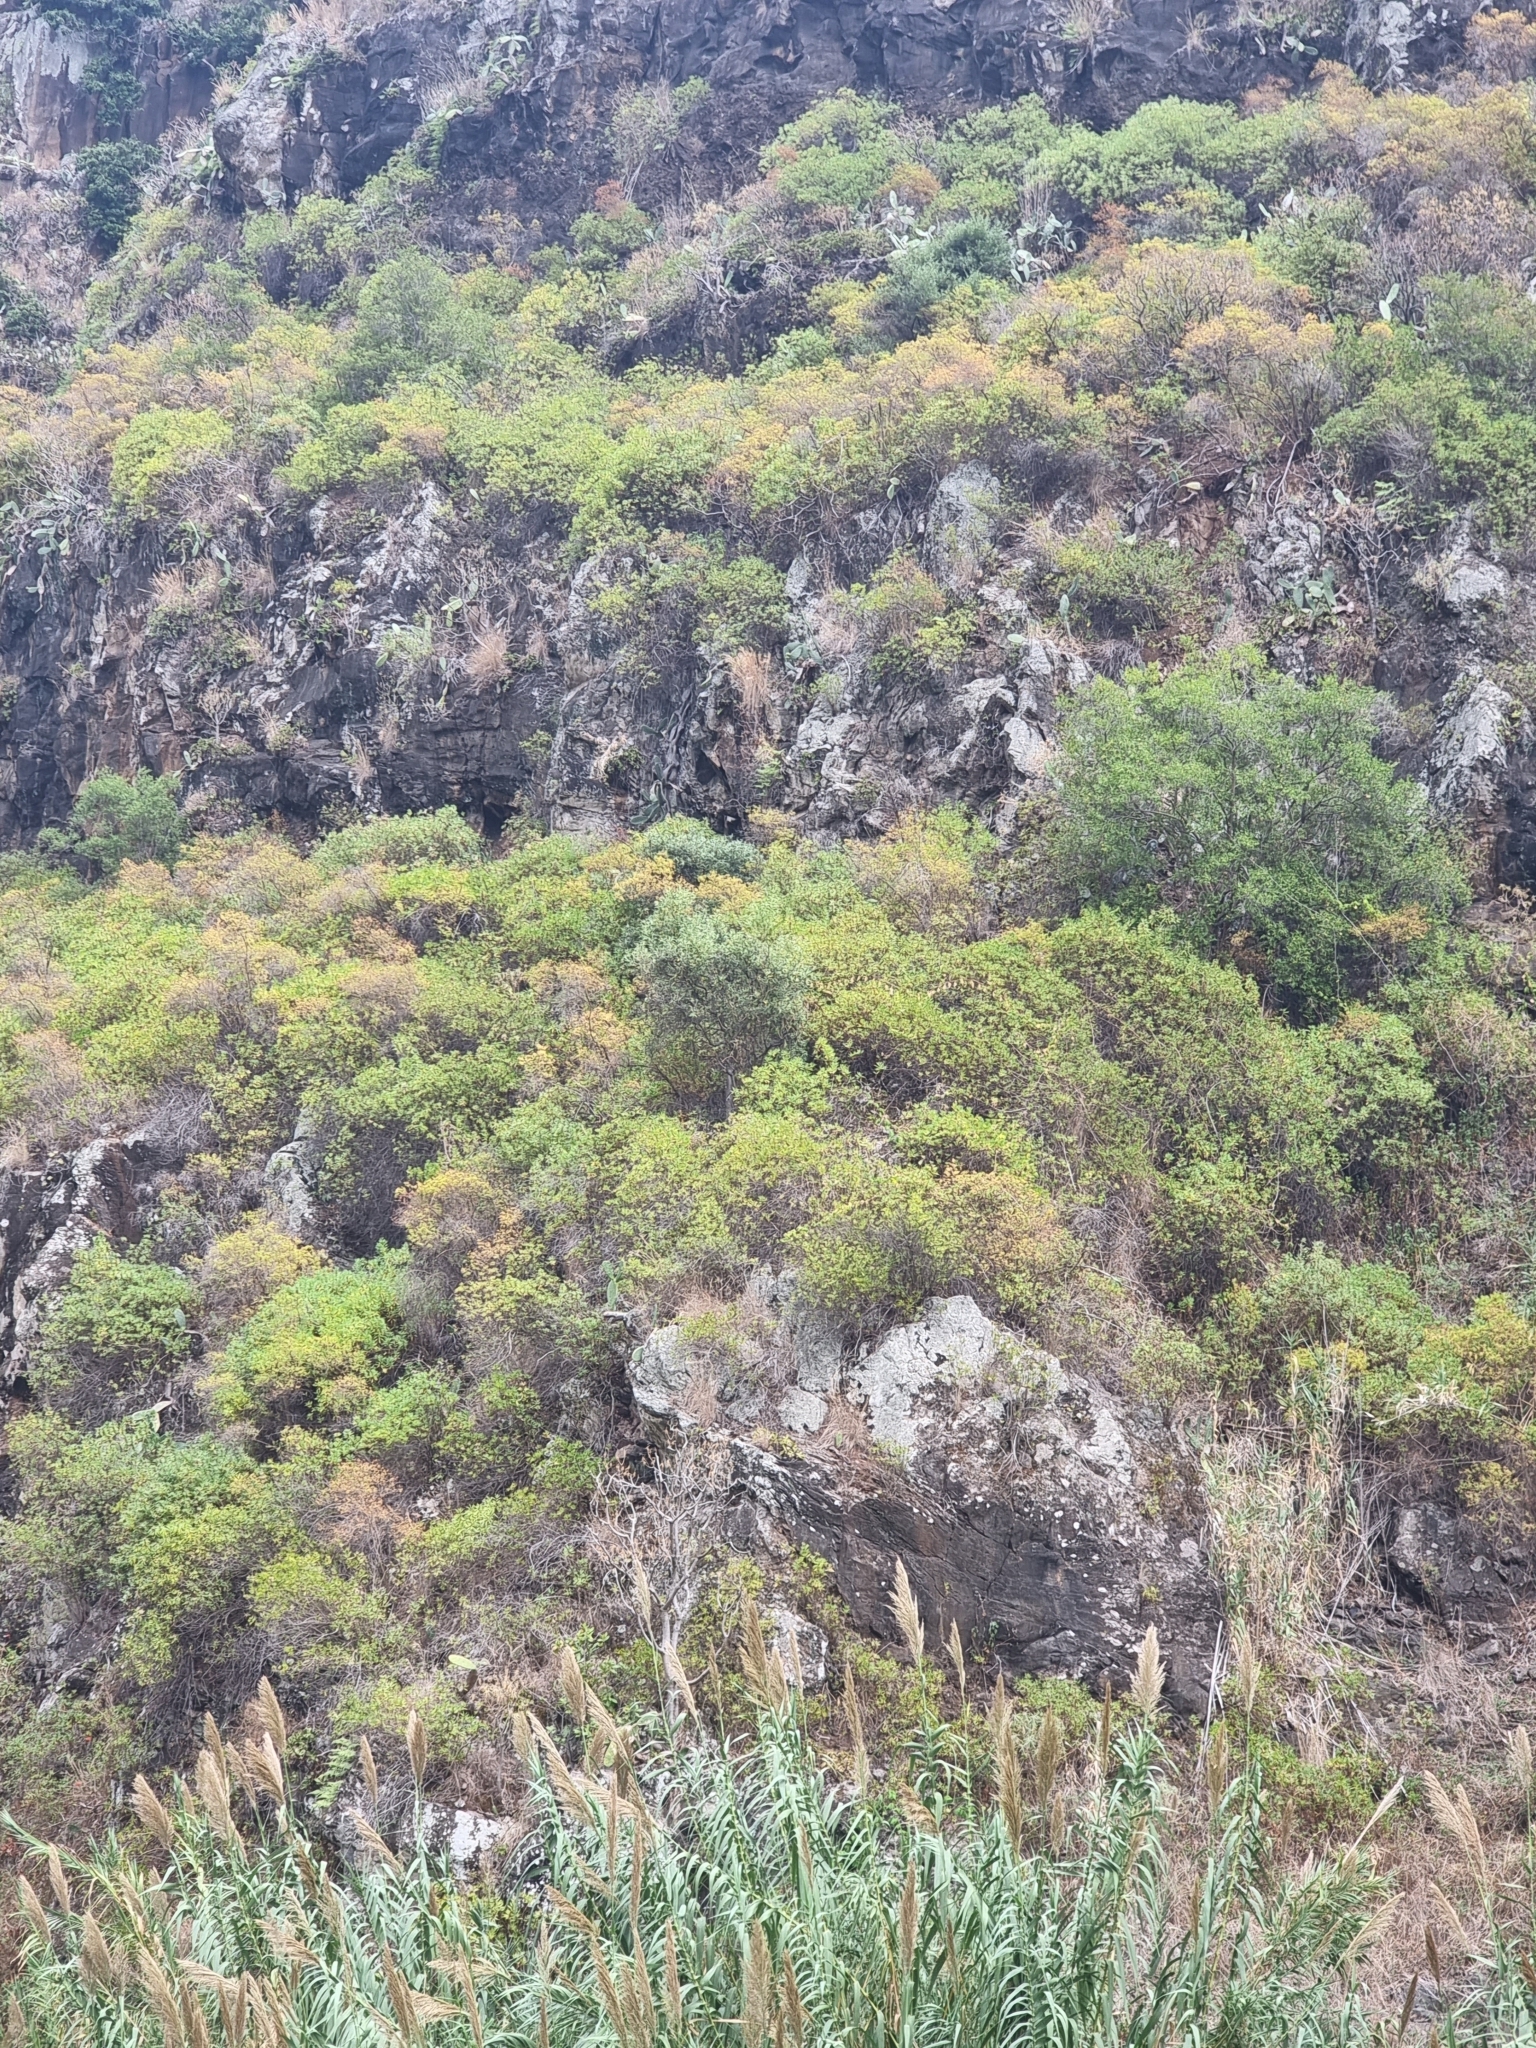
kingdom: Plantae
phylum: Tracheophyta
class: Magnoliopsida
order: Lamiales
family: Oleaceae
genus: Olea
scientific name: Olea europaea
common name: Olive
